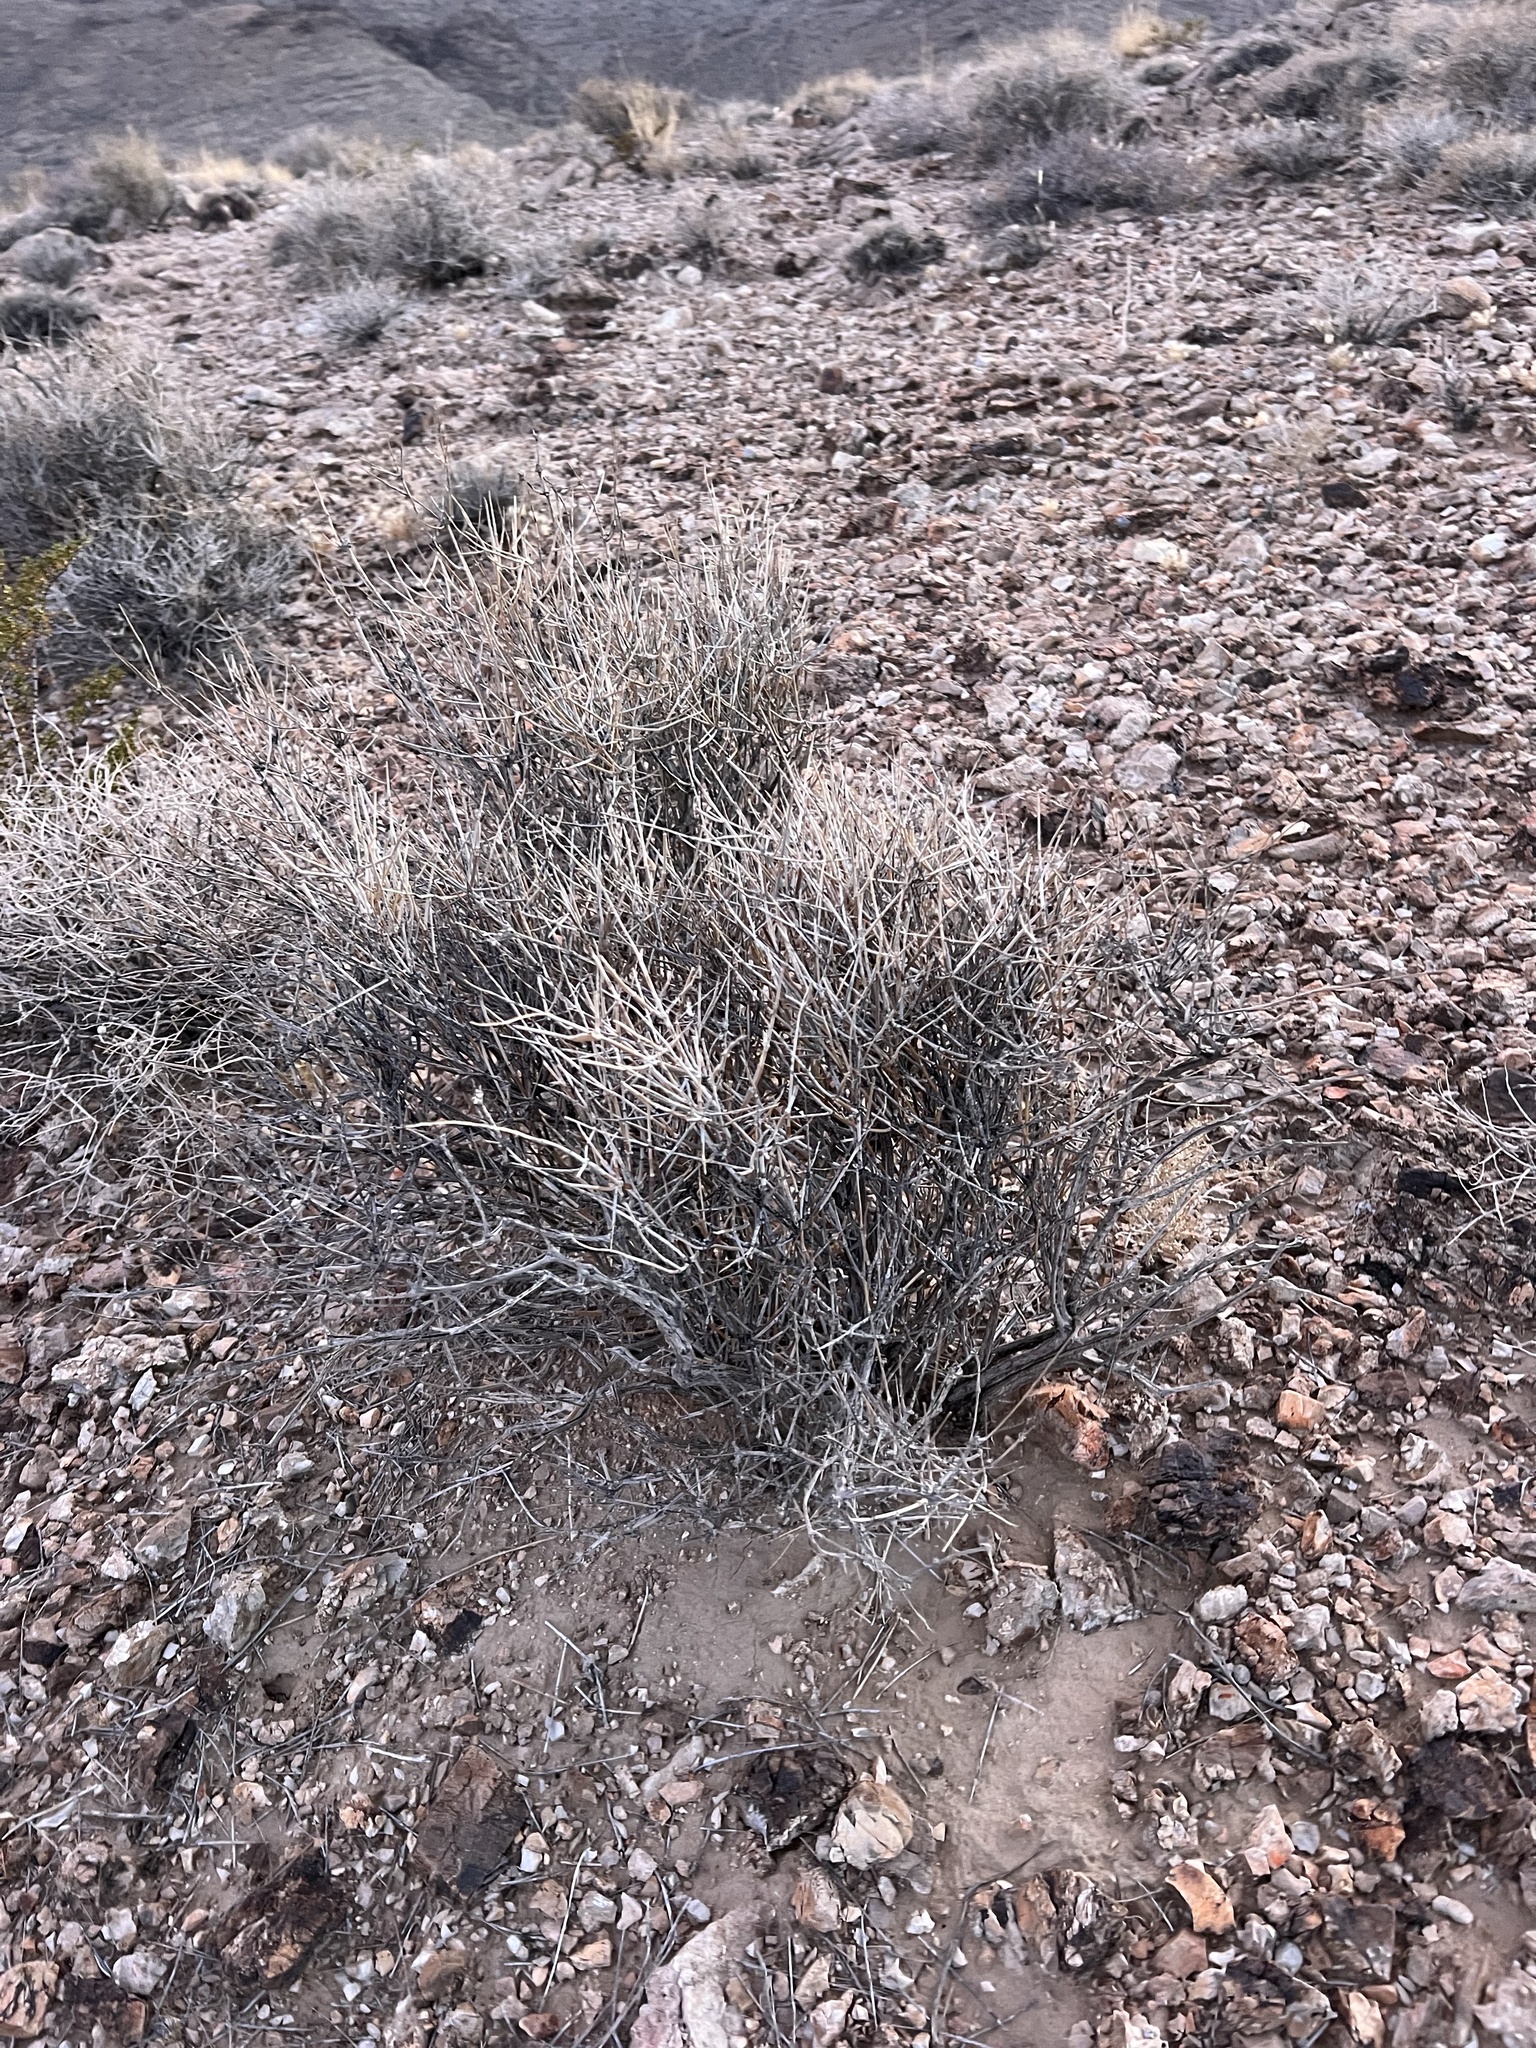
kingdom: Plantae
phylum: Tracheophyta
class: Gnetopsida
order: Ephedrales
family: Ephedraceae
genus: Ephedra
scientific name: Ephedra nevadensis
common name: Gray ephedra
